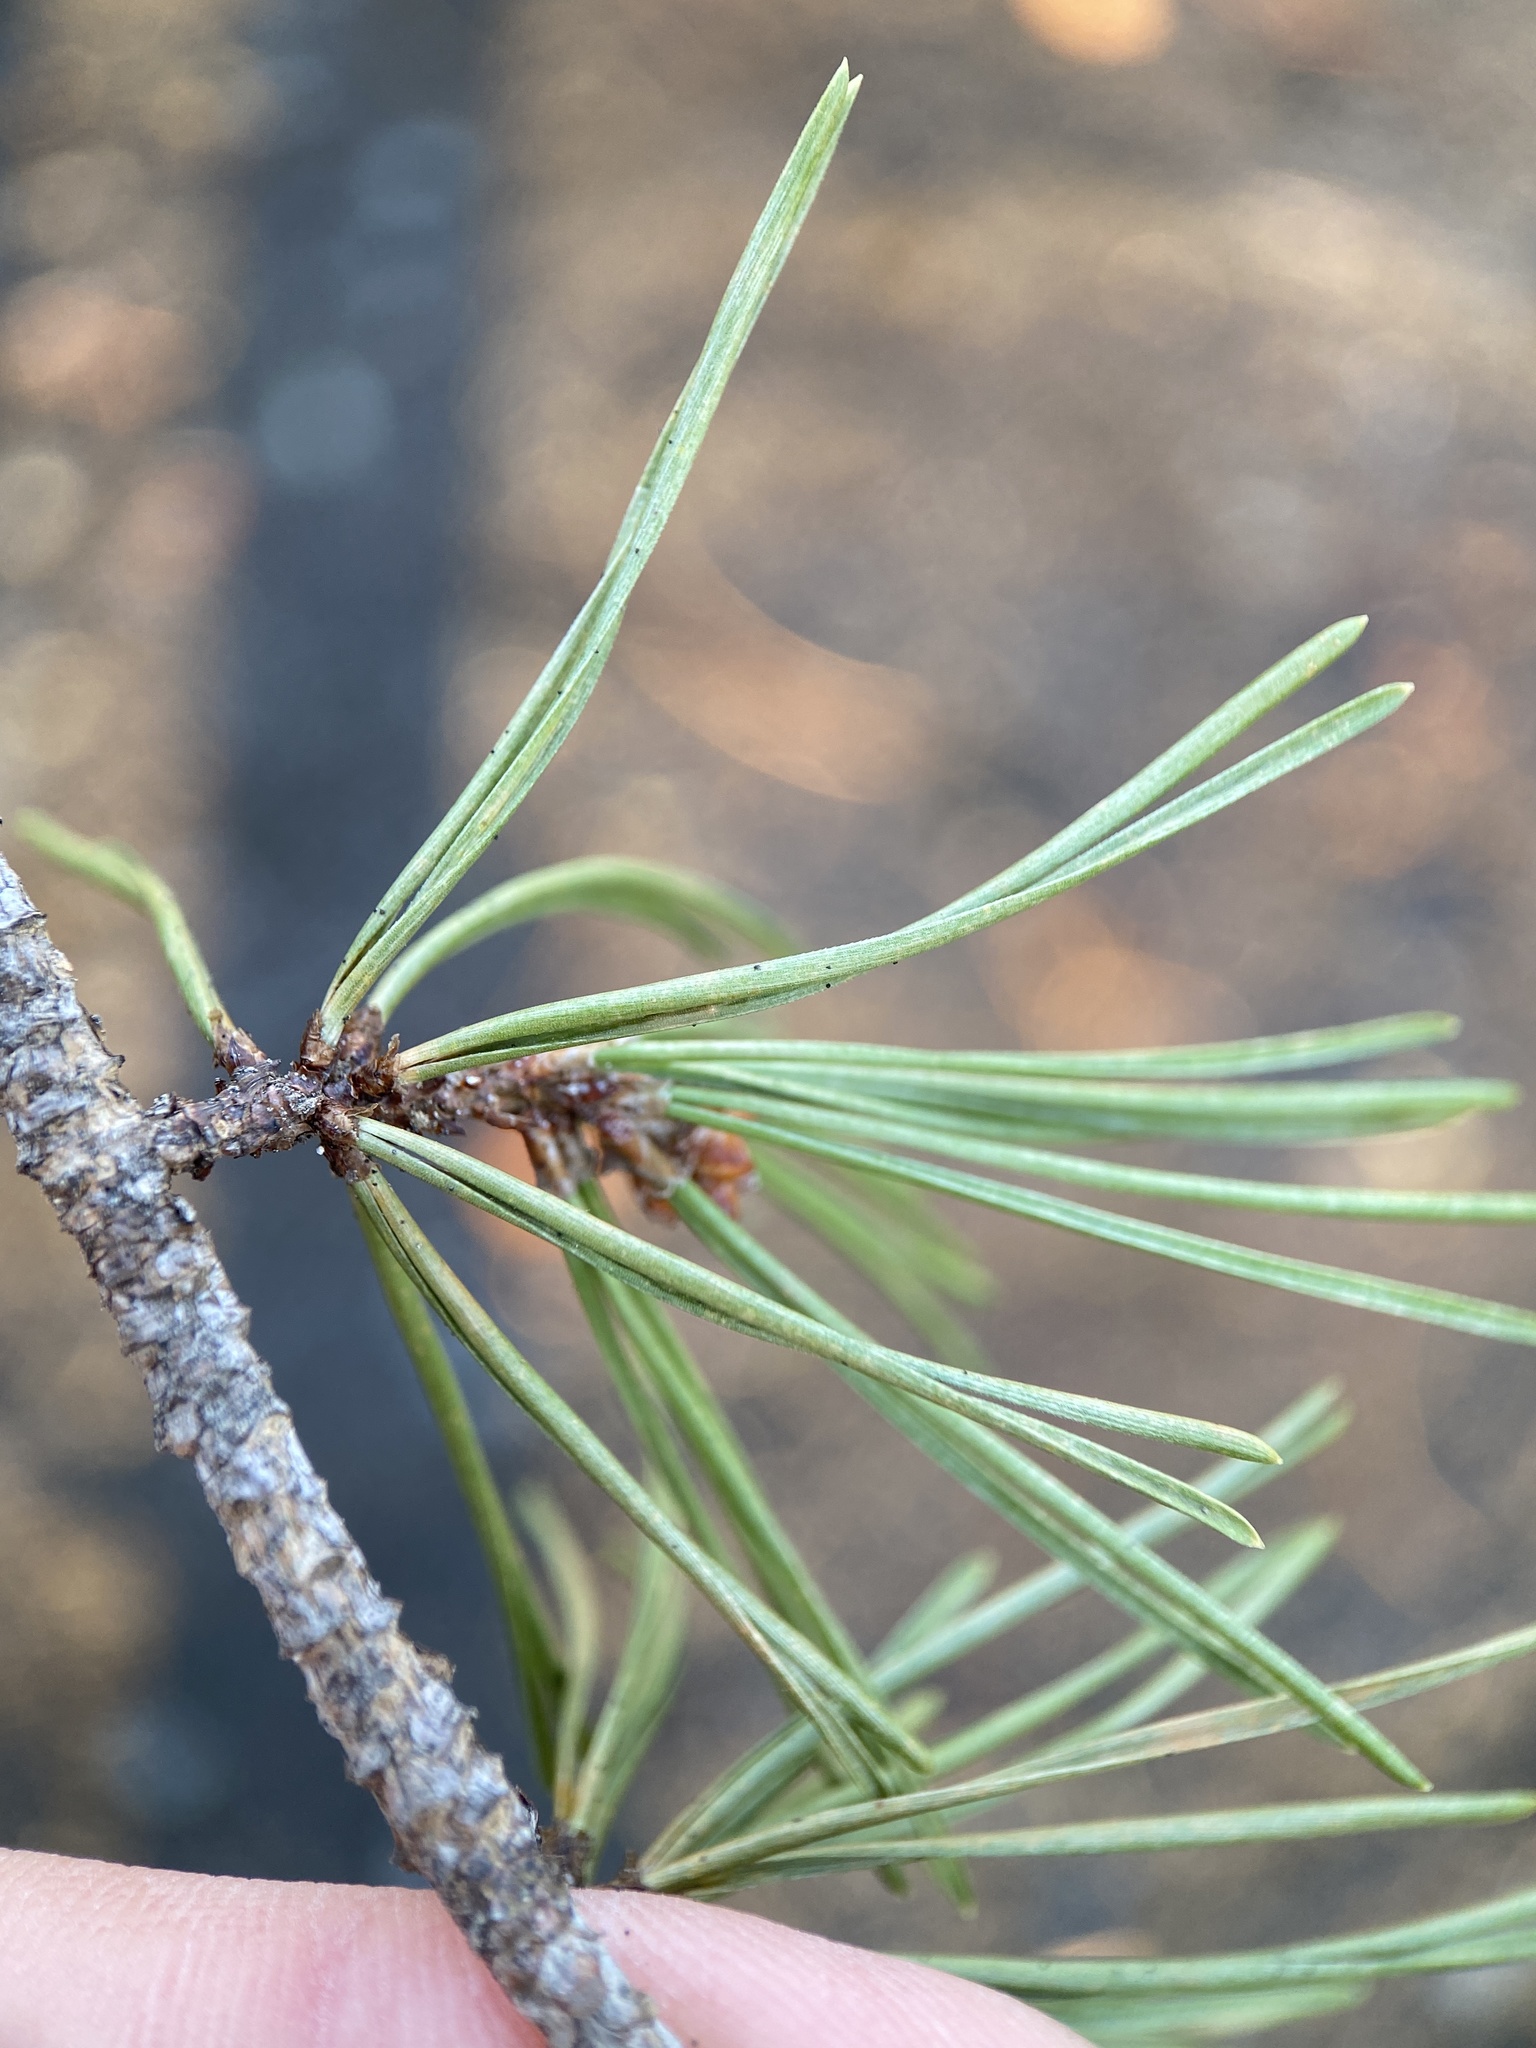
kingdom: Plantae
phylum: Tracheophyta
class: Pinopsida
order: Pinales
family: Pinaceae
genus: Pinus
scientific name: Pinus virginiana
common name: Scrub pine
